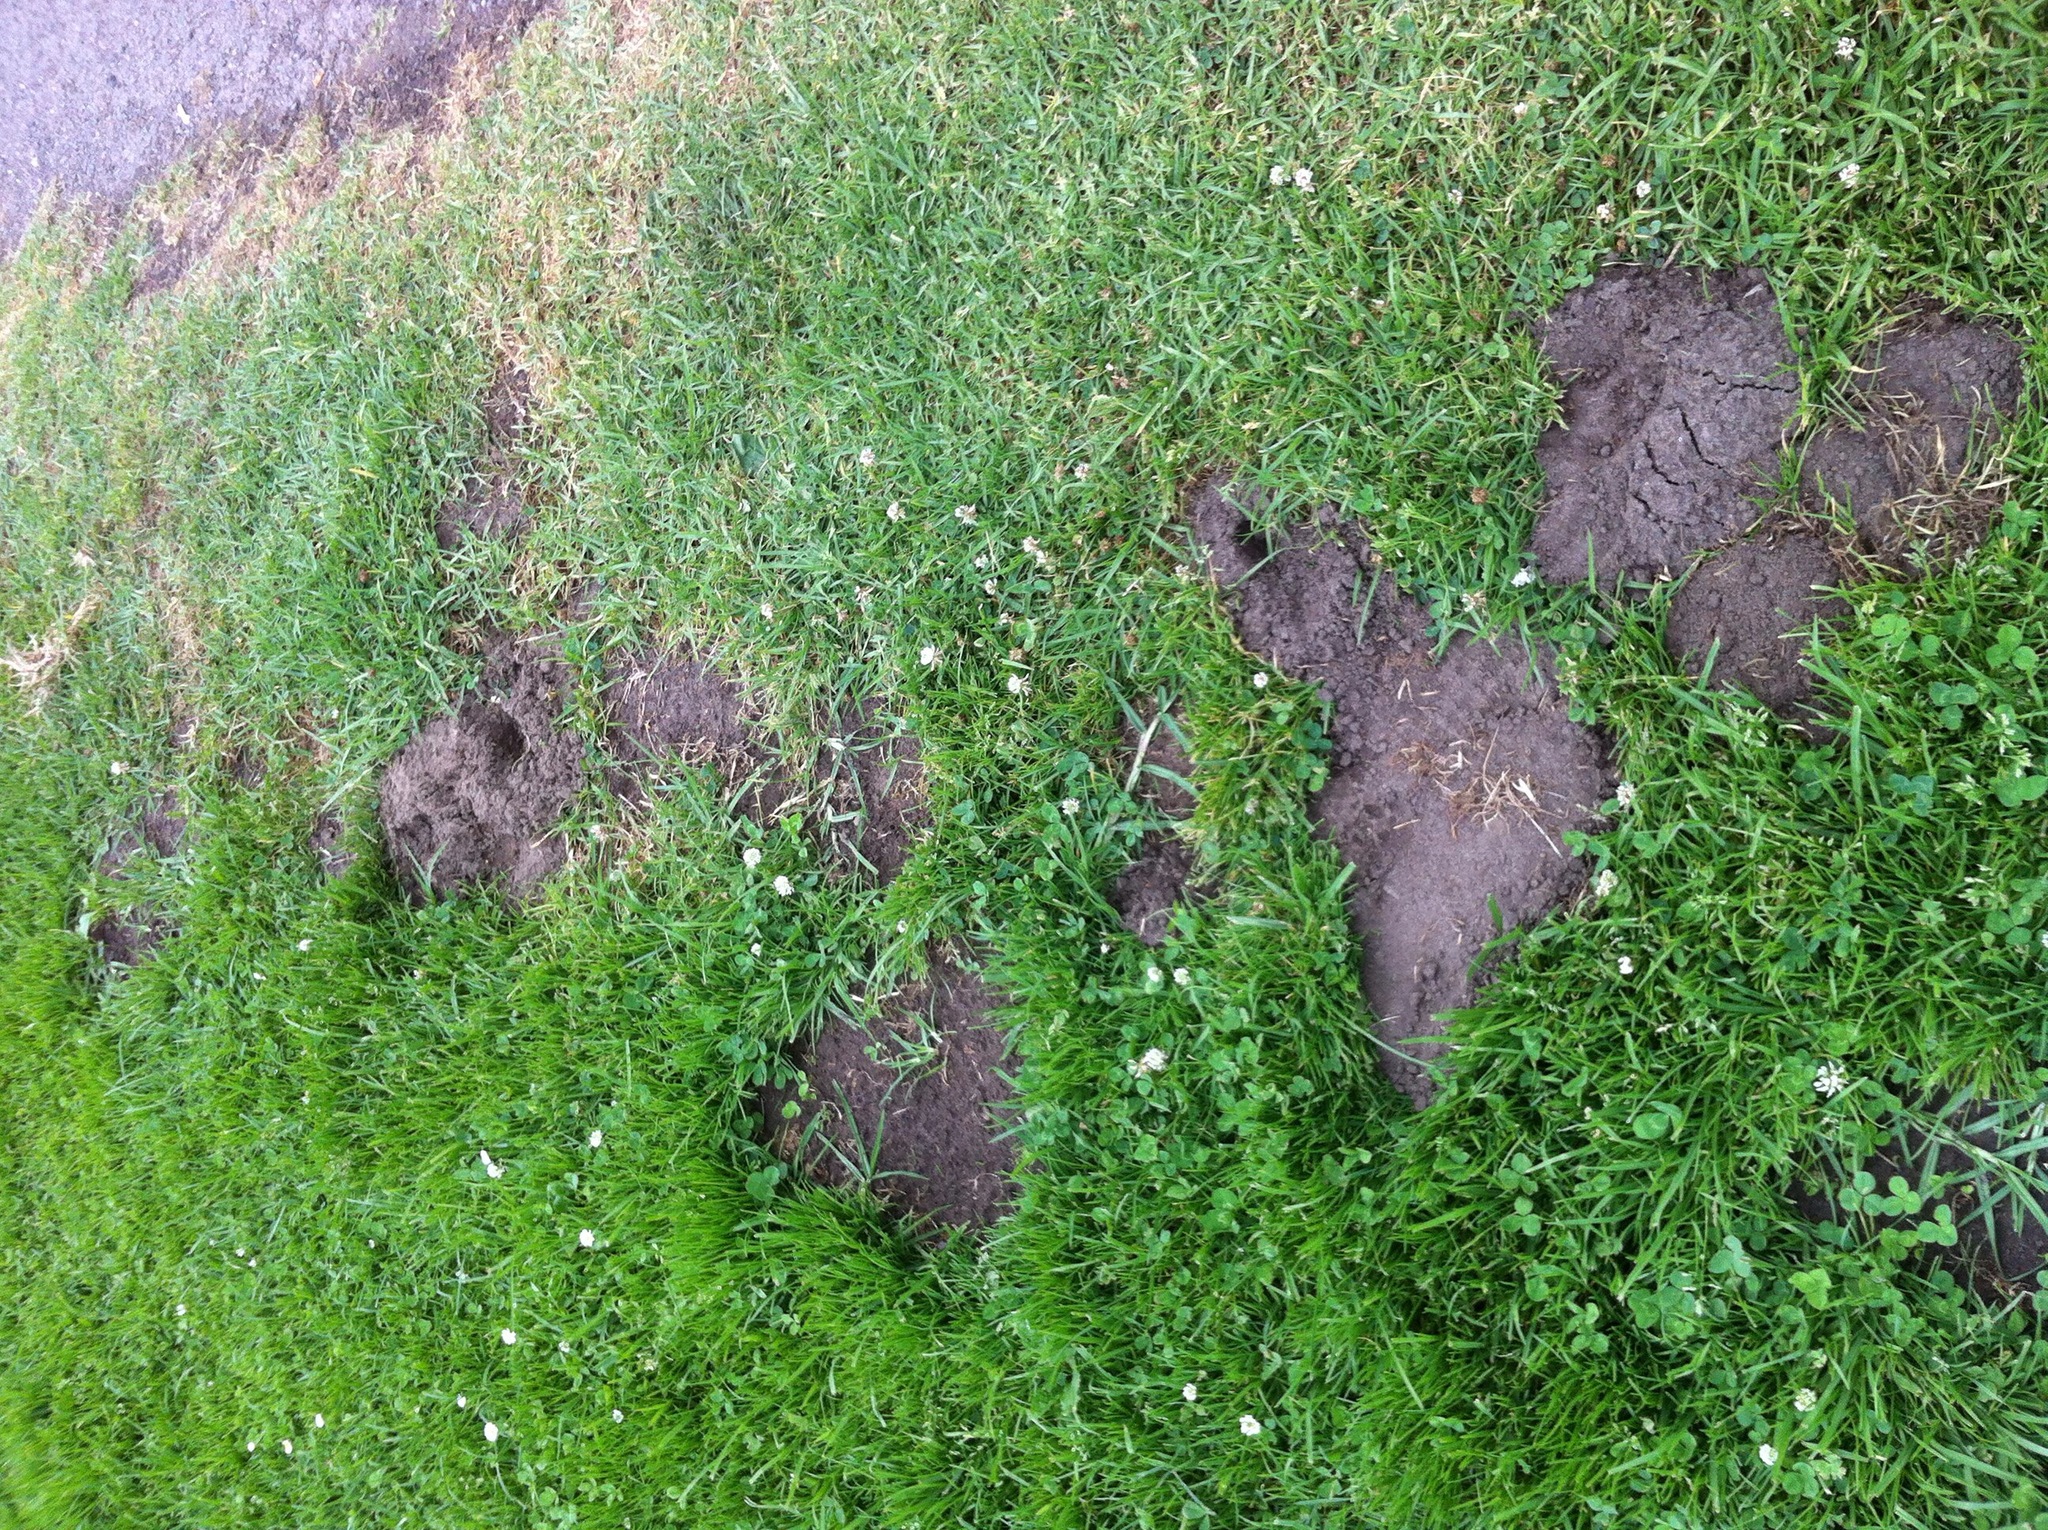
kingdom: Animalia
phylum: Chordata
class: Mammalia
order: Rodentia
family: Geomyidae
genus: Thomomys
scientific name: Thomomys bottae
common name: Botta's pocket gopher
